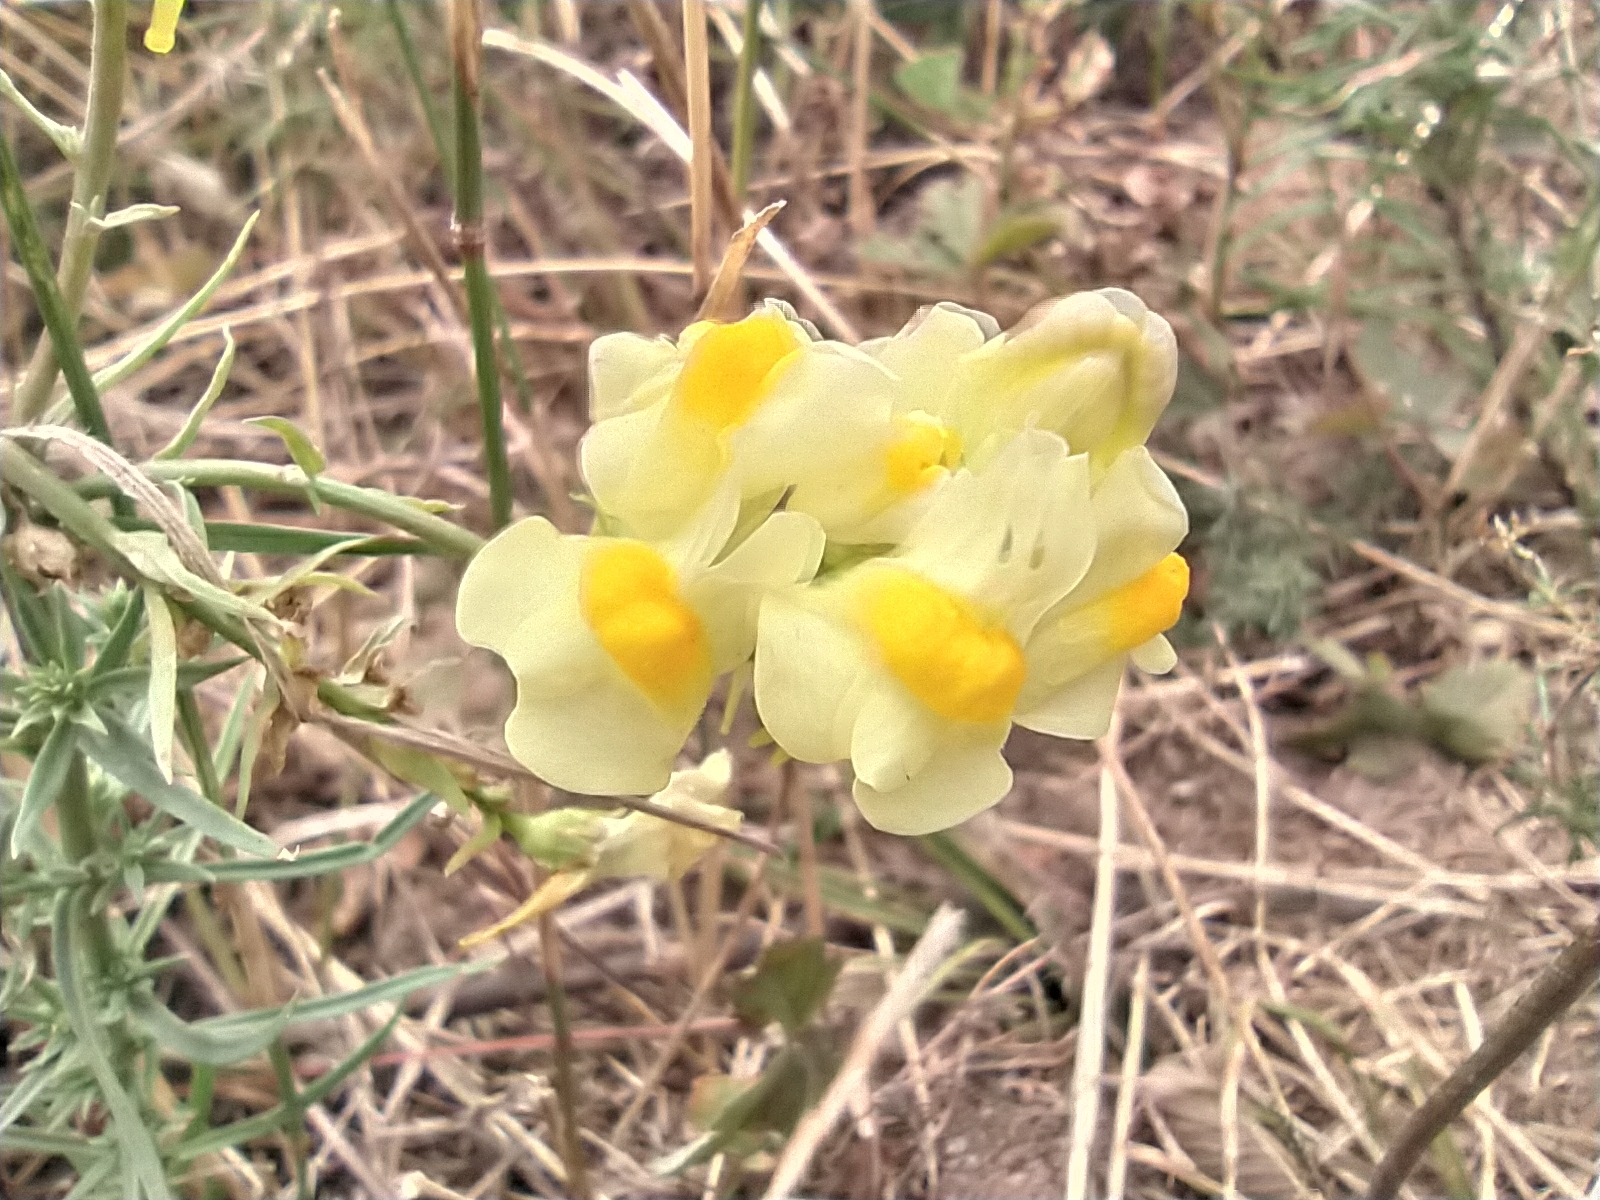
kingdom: Plantae
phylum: Tracheophyta
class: Magnoliopsida
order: Lamiales
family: Plantaginaceae
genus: Linaria
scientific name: Linaria vulgaris
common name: Butter and eggs
